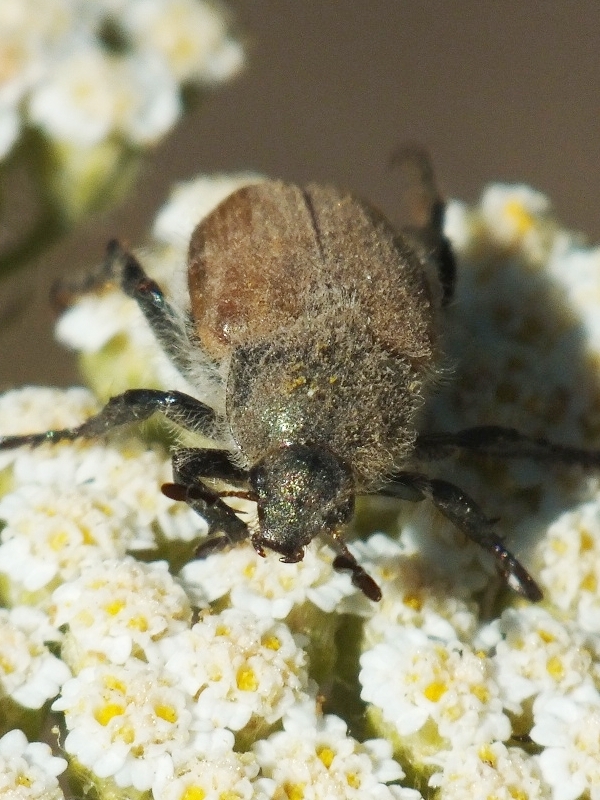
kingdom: Animalia
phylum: Arthropoda
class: Insecta
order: Coleoptera
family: Scarabaeidae
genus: Chaetopteroplia
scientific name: Chaetopteroplia segetum
